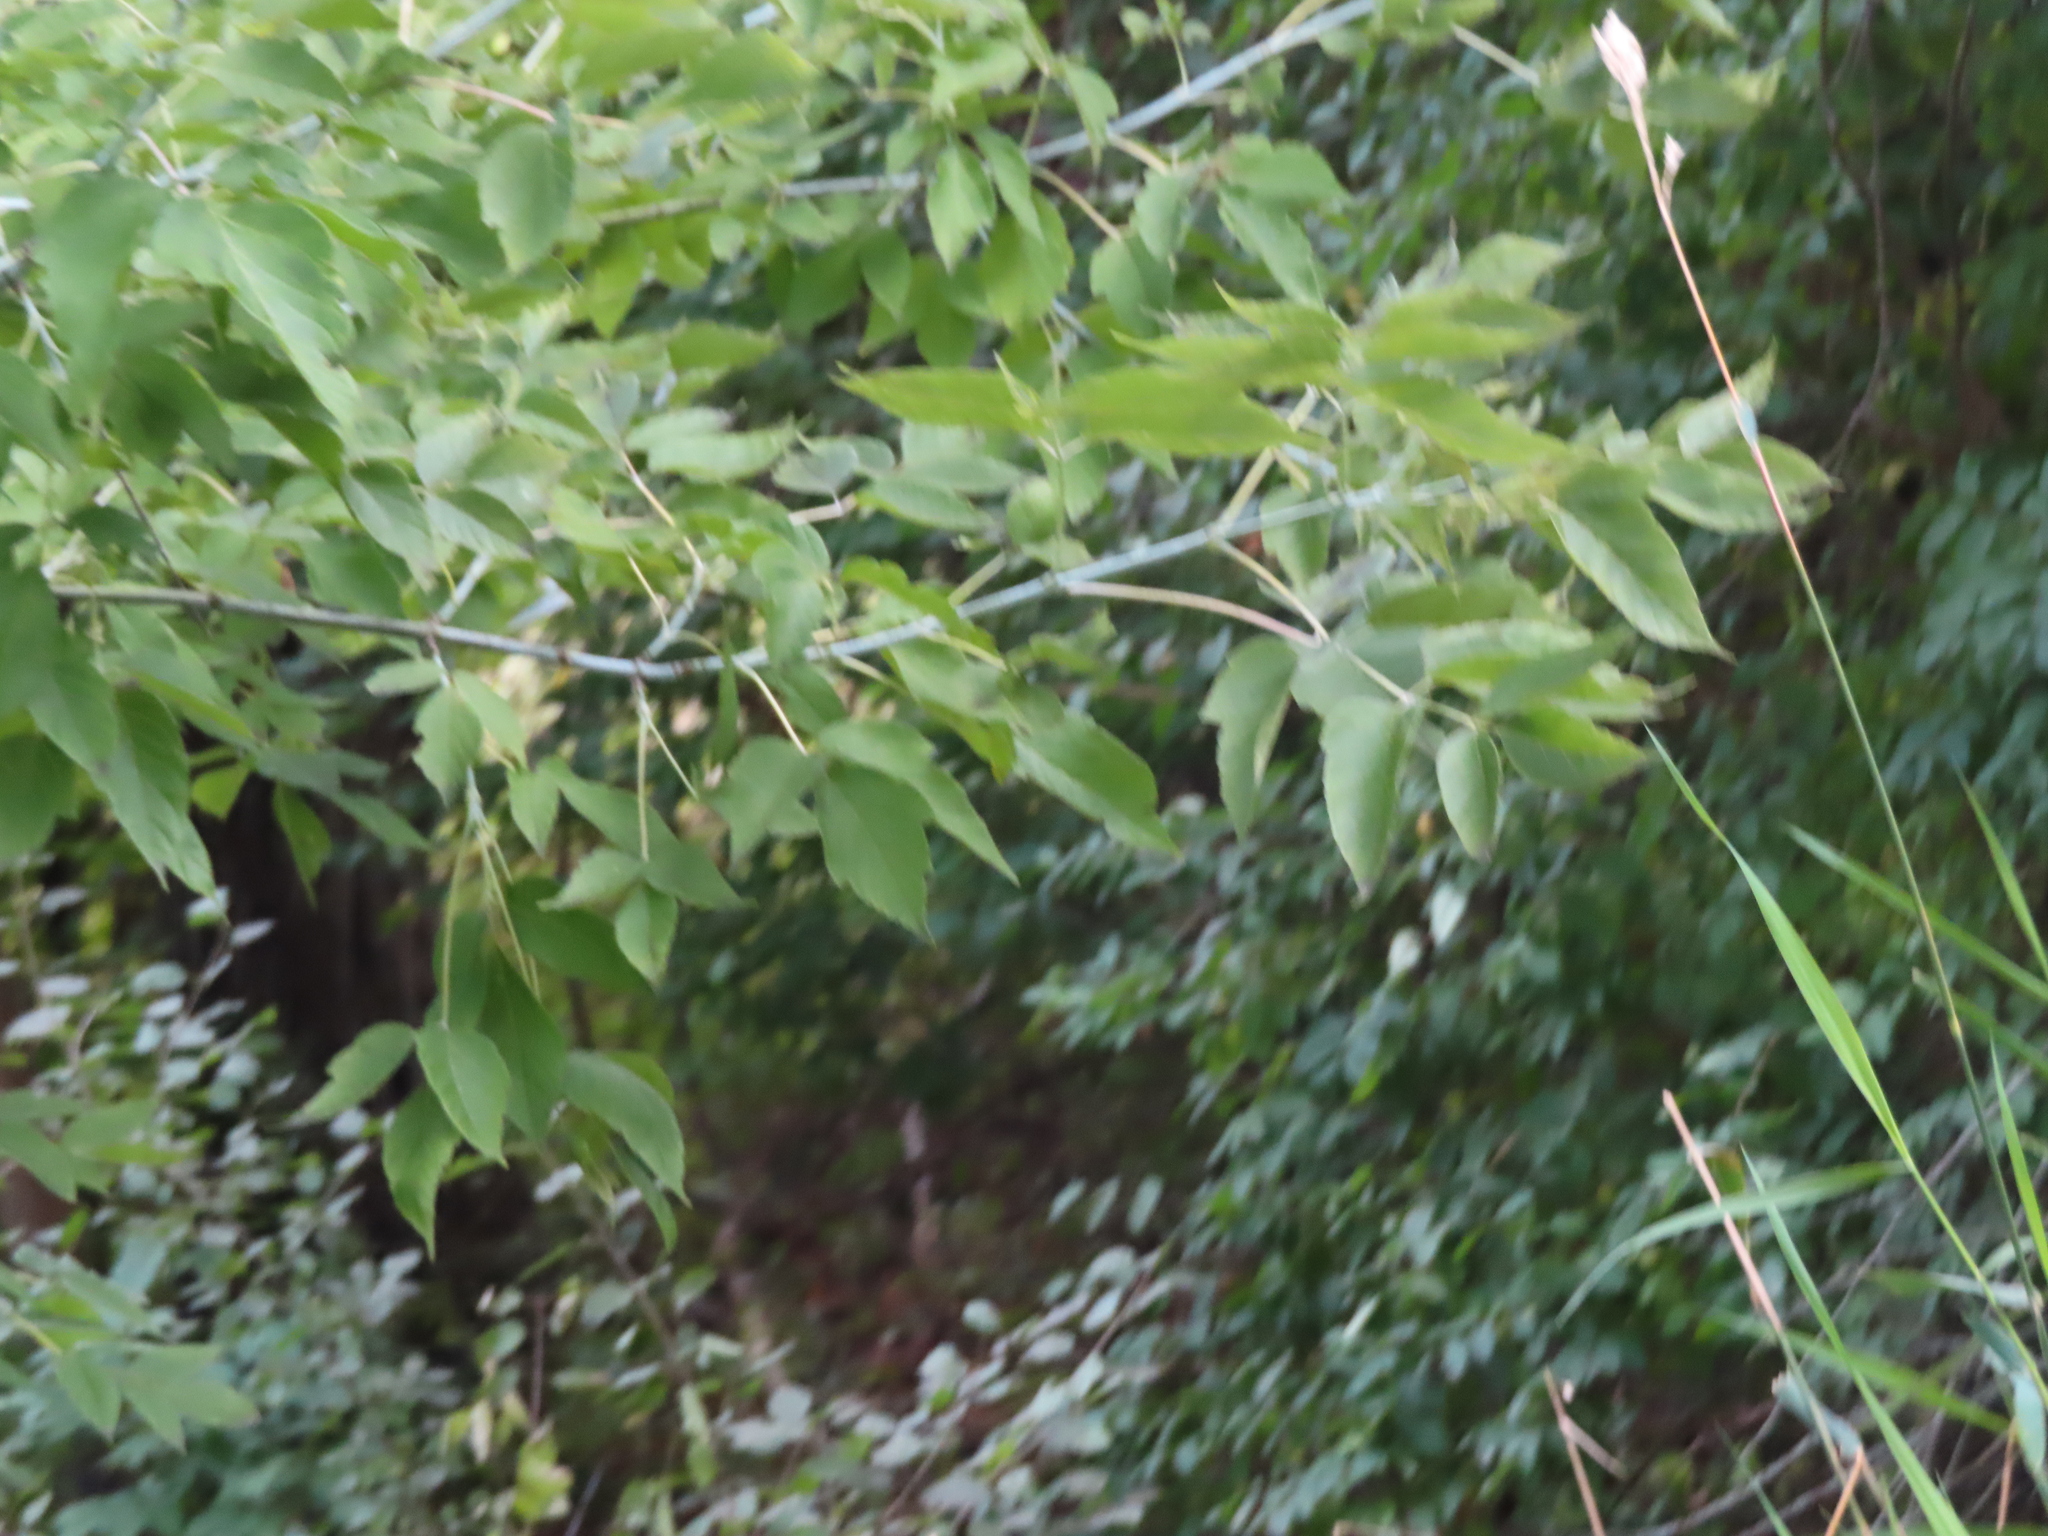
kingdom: Plantae
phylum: Tracheophyta
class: Magnoliopsida
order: Sapindales
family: Sapindaceae
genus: Acer
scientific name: Acer negundo
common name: Ashleaf maple
